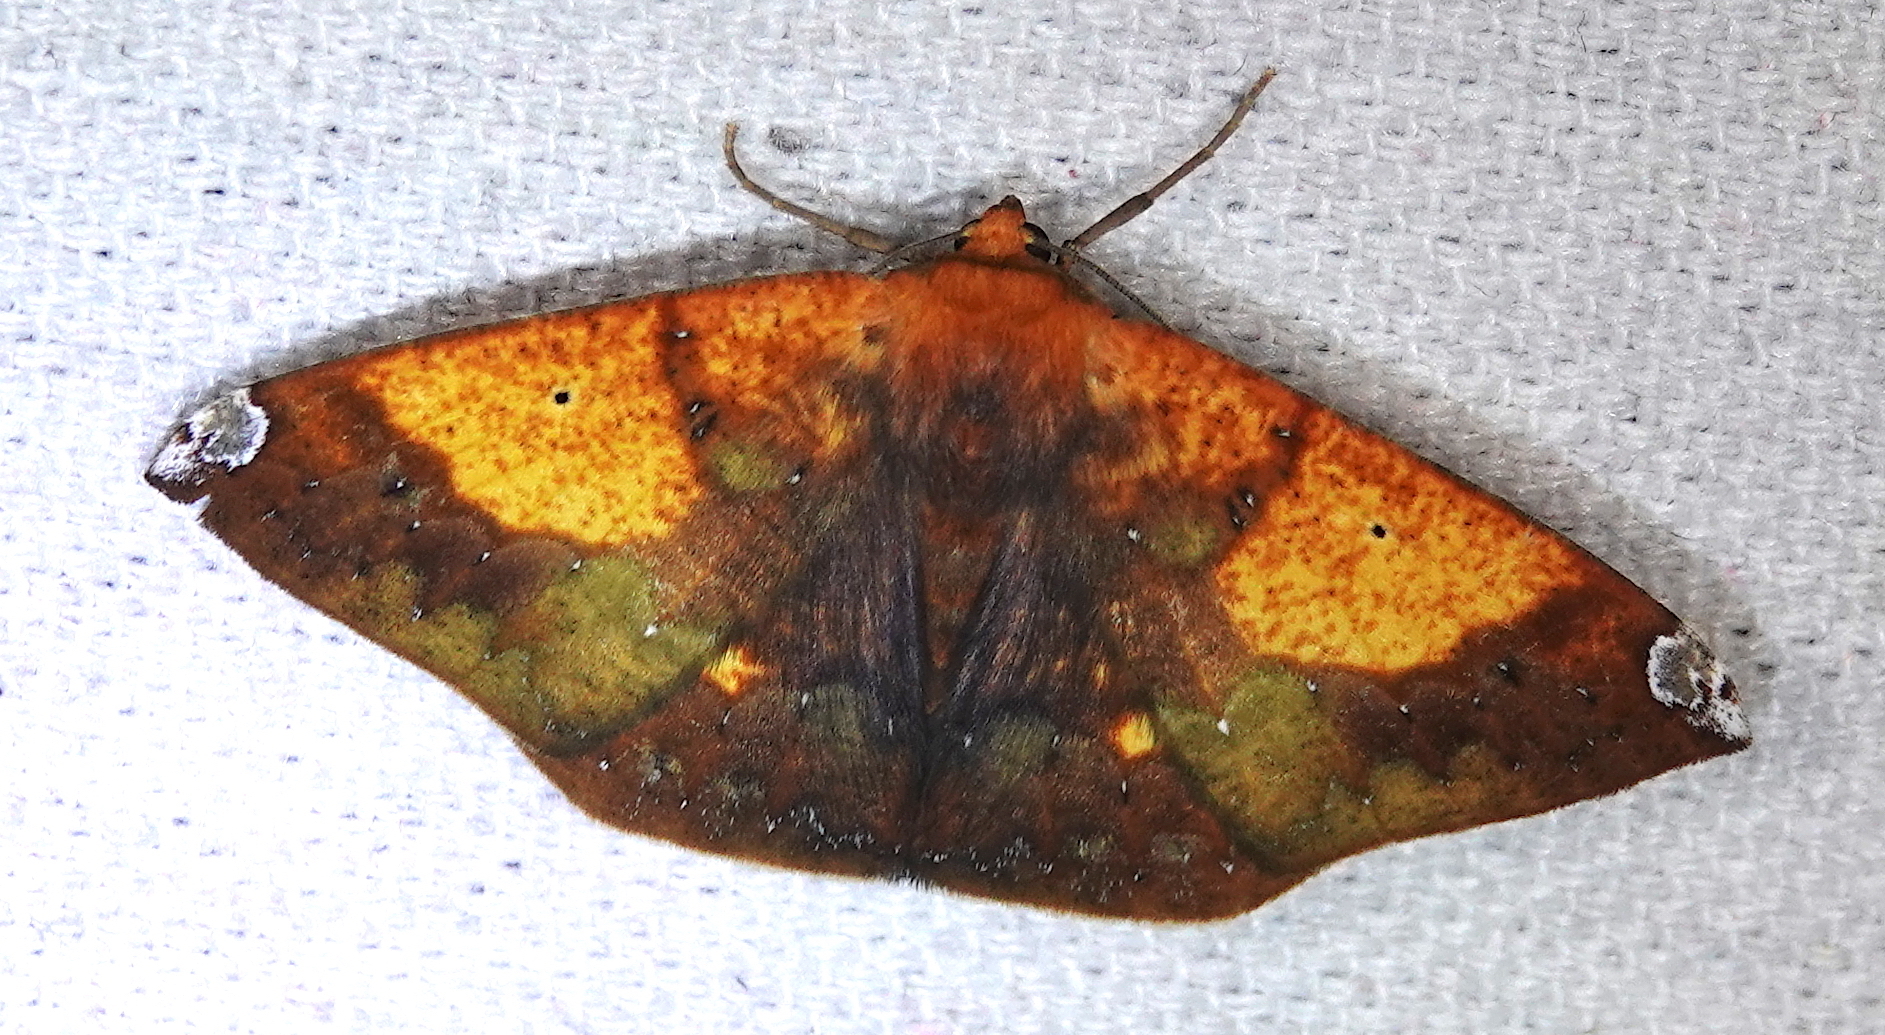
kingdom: Animalia
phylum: Arthropoda
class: Insecta
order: Lepidoptera
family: Geometridae
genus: Acrosemia
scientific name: Acrosemia vulpecularia
